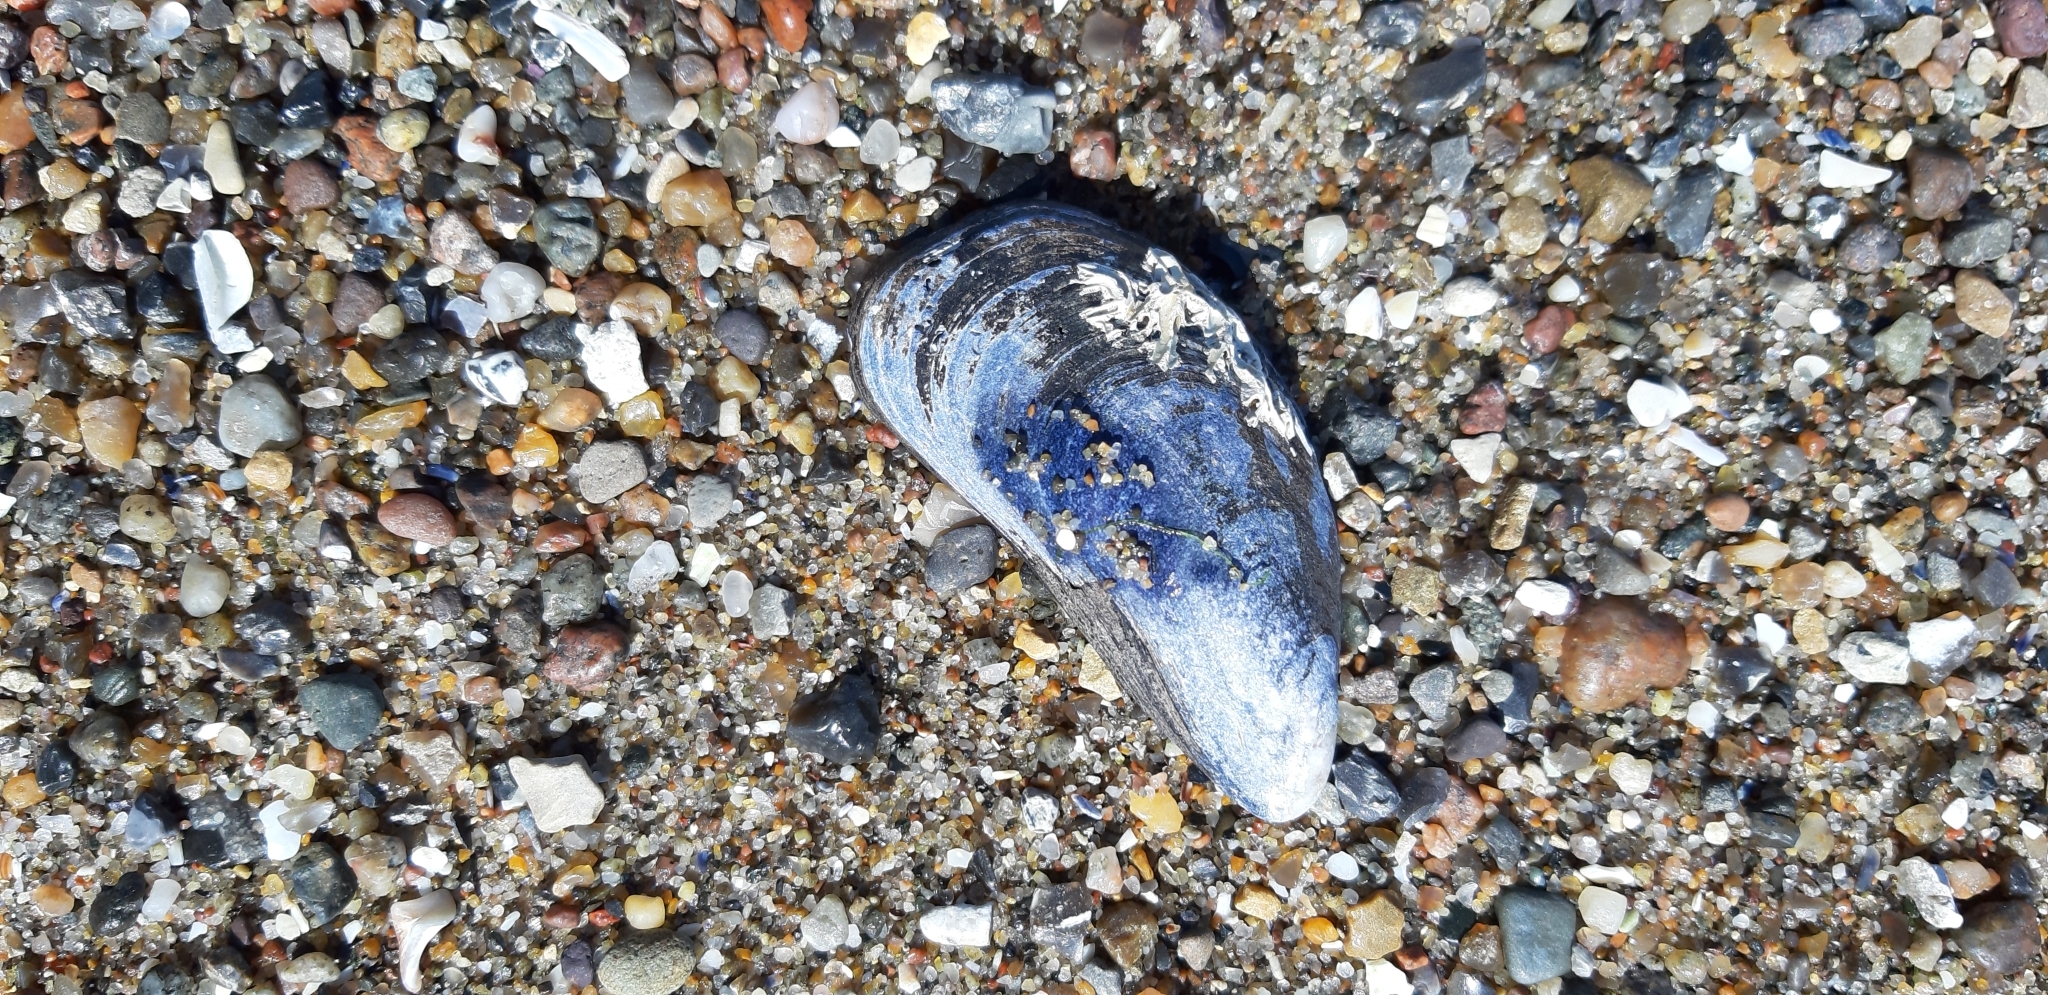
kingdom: Animalia
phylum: Mollusca
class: Bivalvia
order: Mytilida
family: Mytilidae
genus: Mytilus
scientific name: Mytilus edulis
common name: Blue mussel
